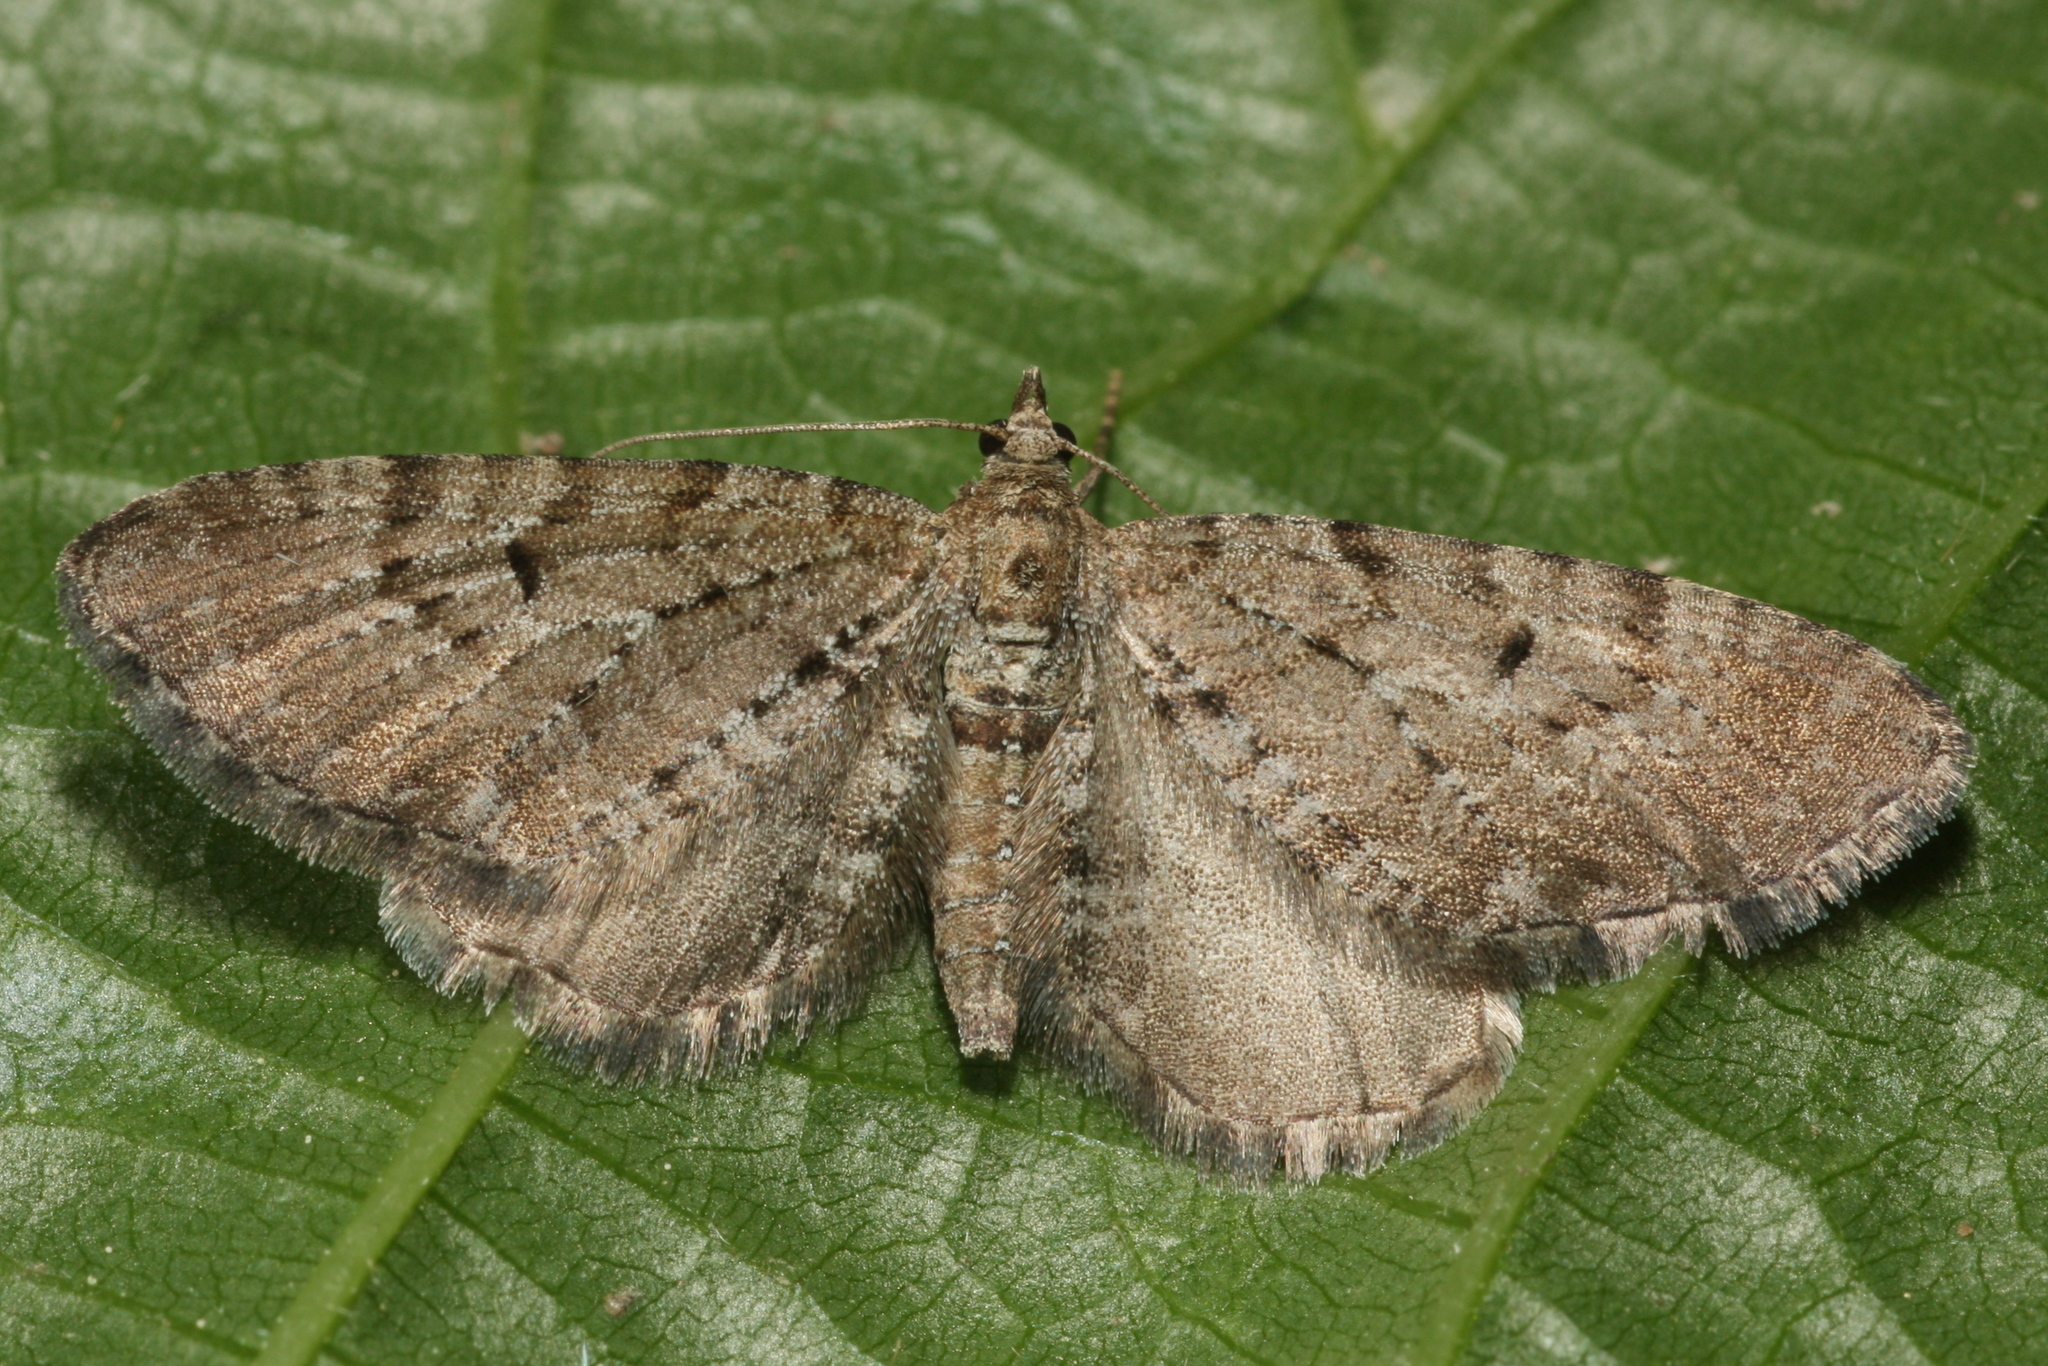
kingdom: Animalia
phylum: Arthropoda
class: Insecta
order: Lepidoptera
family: Geometridae
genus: Eupithecia
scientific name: Eupithecia intricata
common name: Freyers pug
